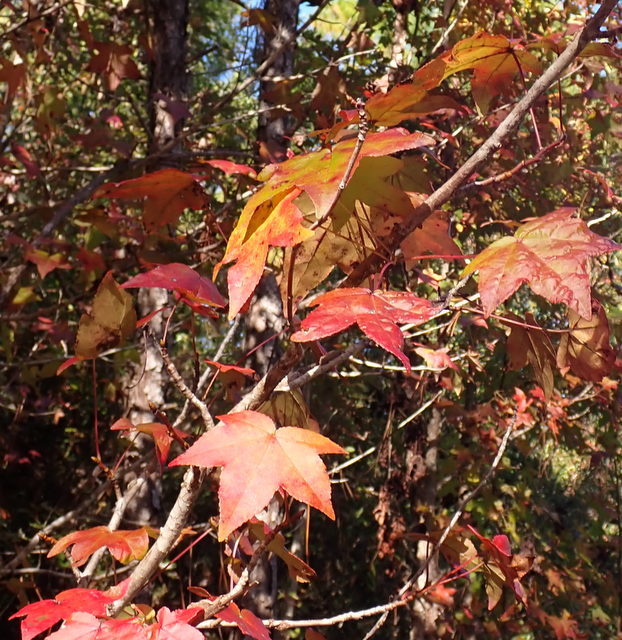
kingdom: Plantae
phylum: Tracheophyta
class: Magnoliopsida
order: Saxifragales
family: Altingiaceae
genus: Liquidambar
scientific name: Liquidambar styraciflua
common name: Sweet gum
